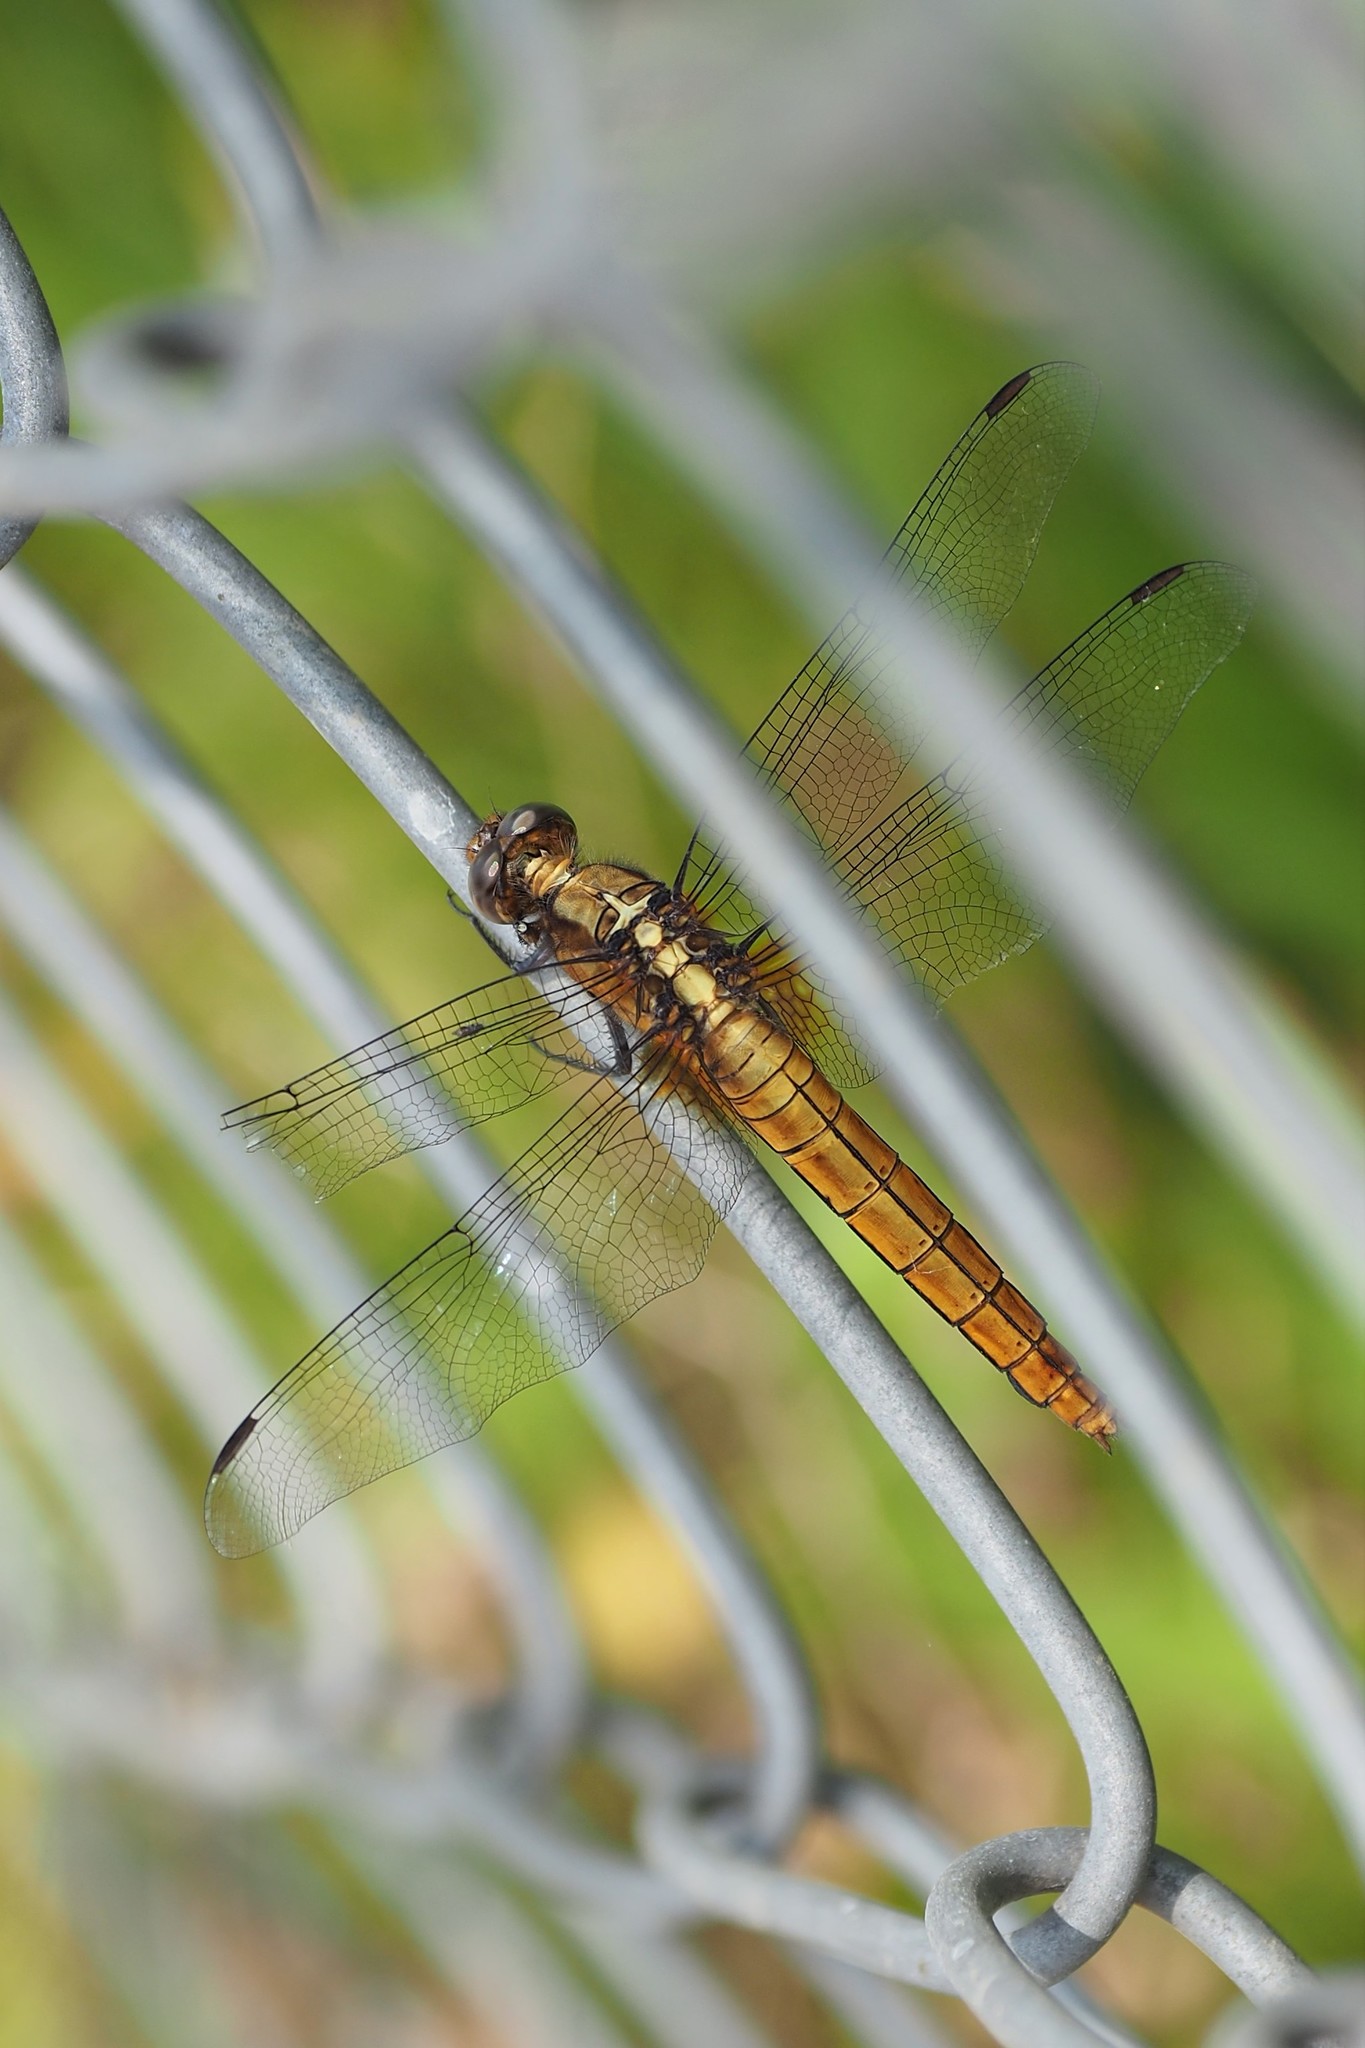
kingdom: Animalia
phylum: Arthropoda
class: Insecta
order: Odonata
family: Libellulidae
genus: Orthetrum
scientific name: Orthetrum glaucum
